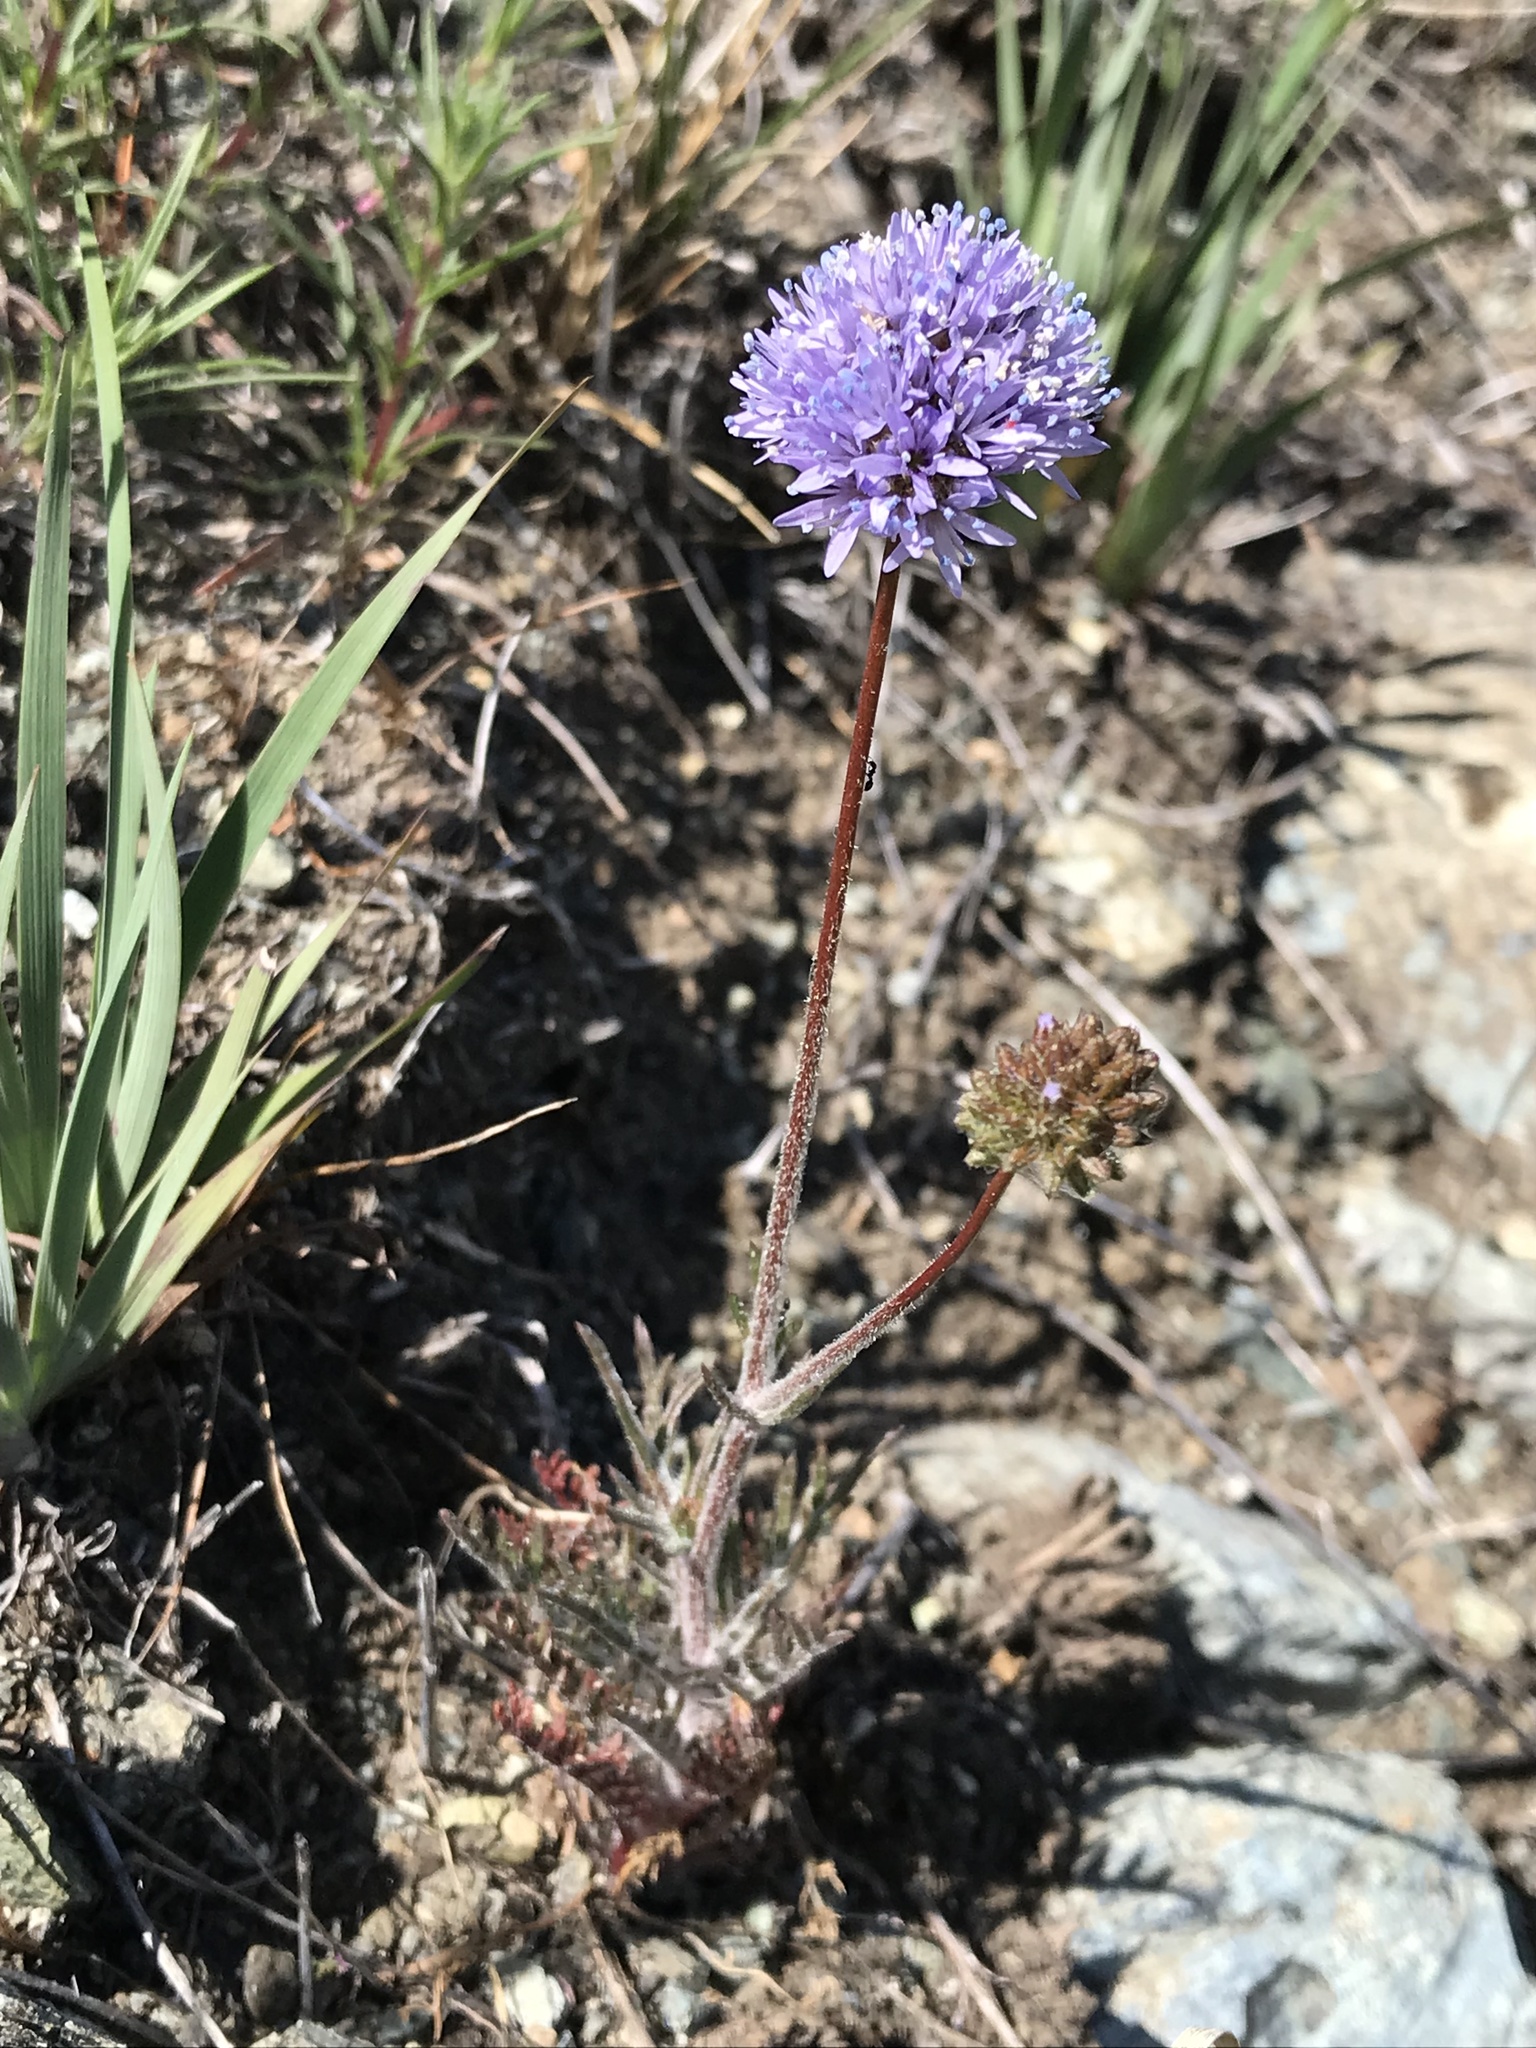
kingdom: Plantae
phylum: Tracheophyta
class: Magnoliopsida
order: Ericales
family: Polemoniaceae
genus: Gilia
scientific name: Gilia capitata
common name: Bluehead gilia
